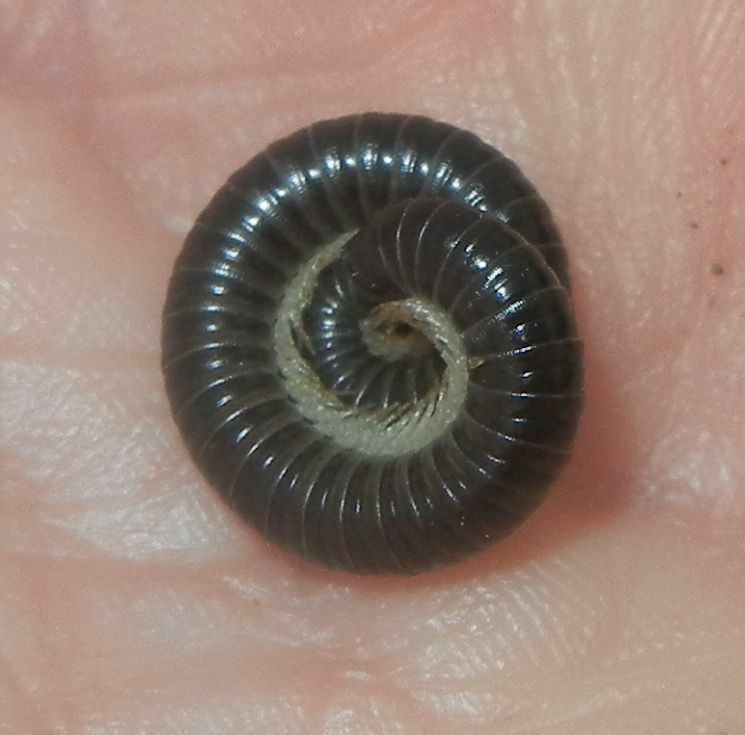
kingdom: Animalia
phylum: Arthropoda
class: Diplopoda
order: Julida
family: Julidae
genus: Tachypodoiulus
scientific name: Tachypodoiulus niger
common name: White-legged snake millipede
